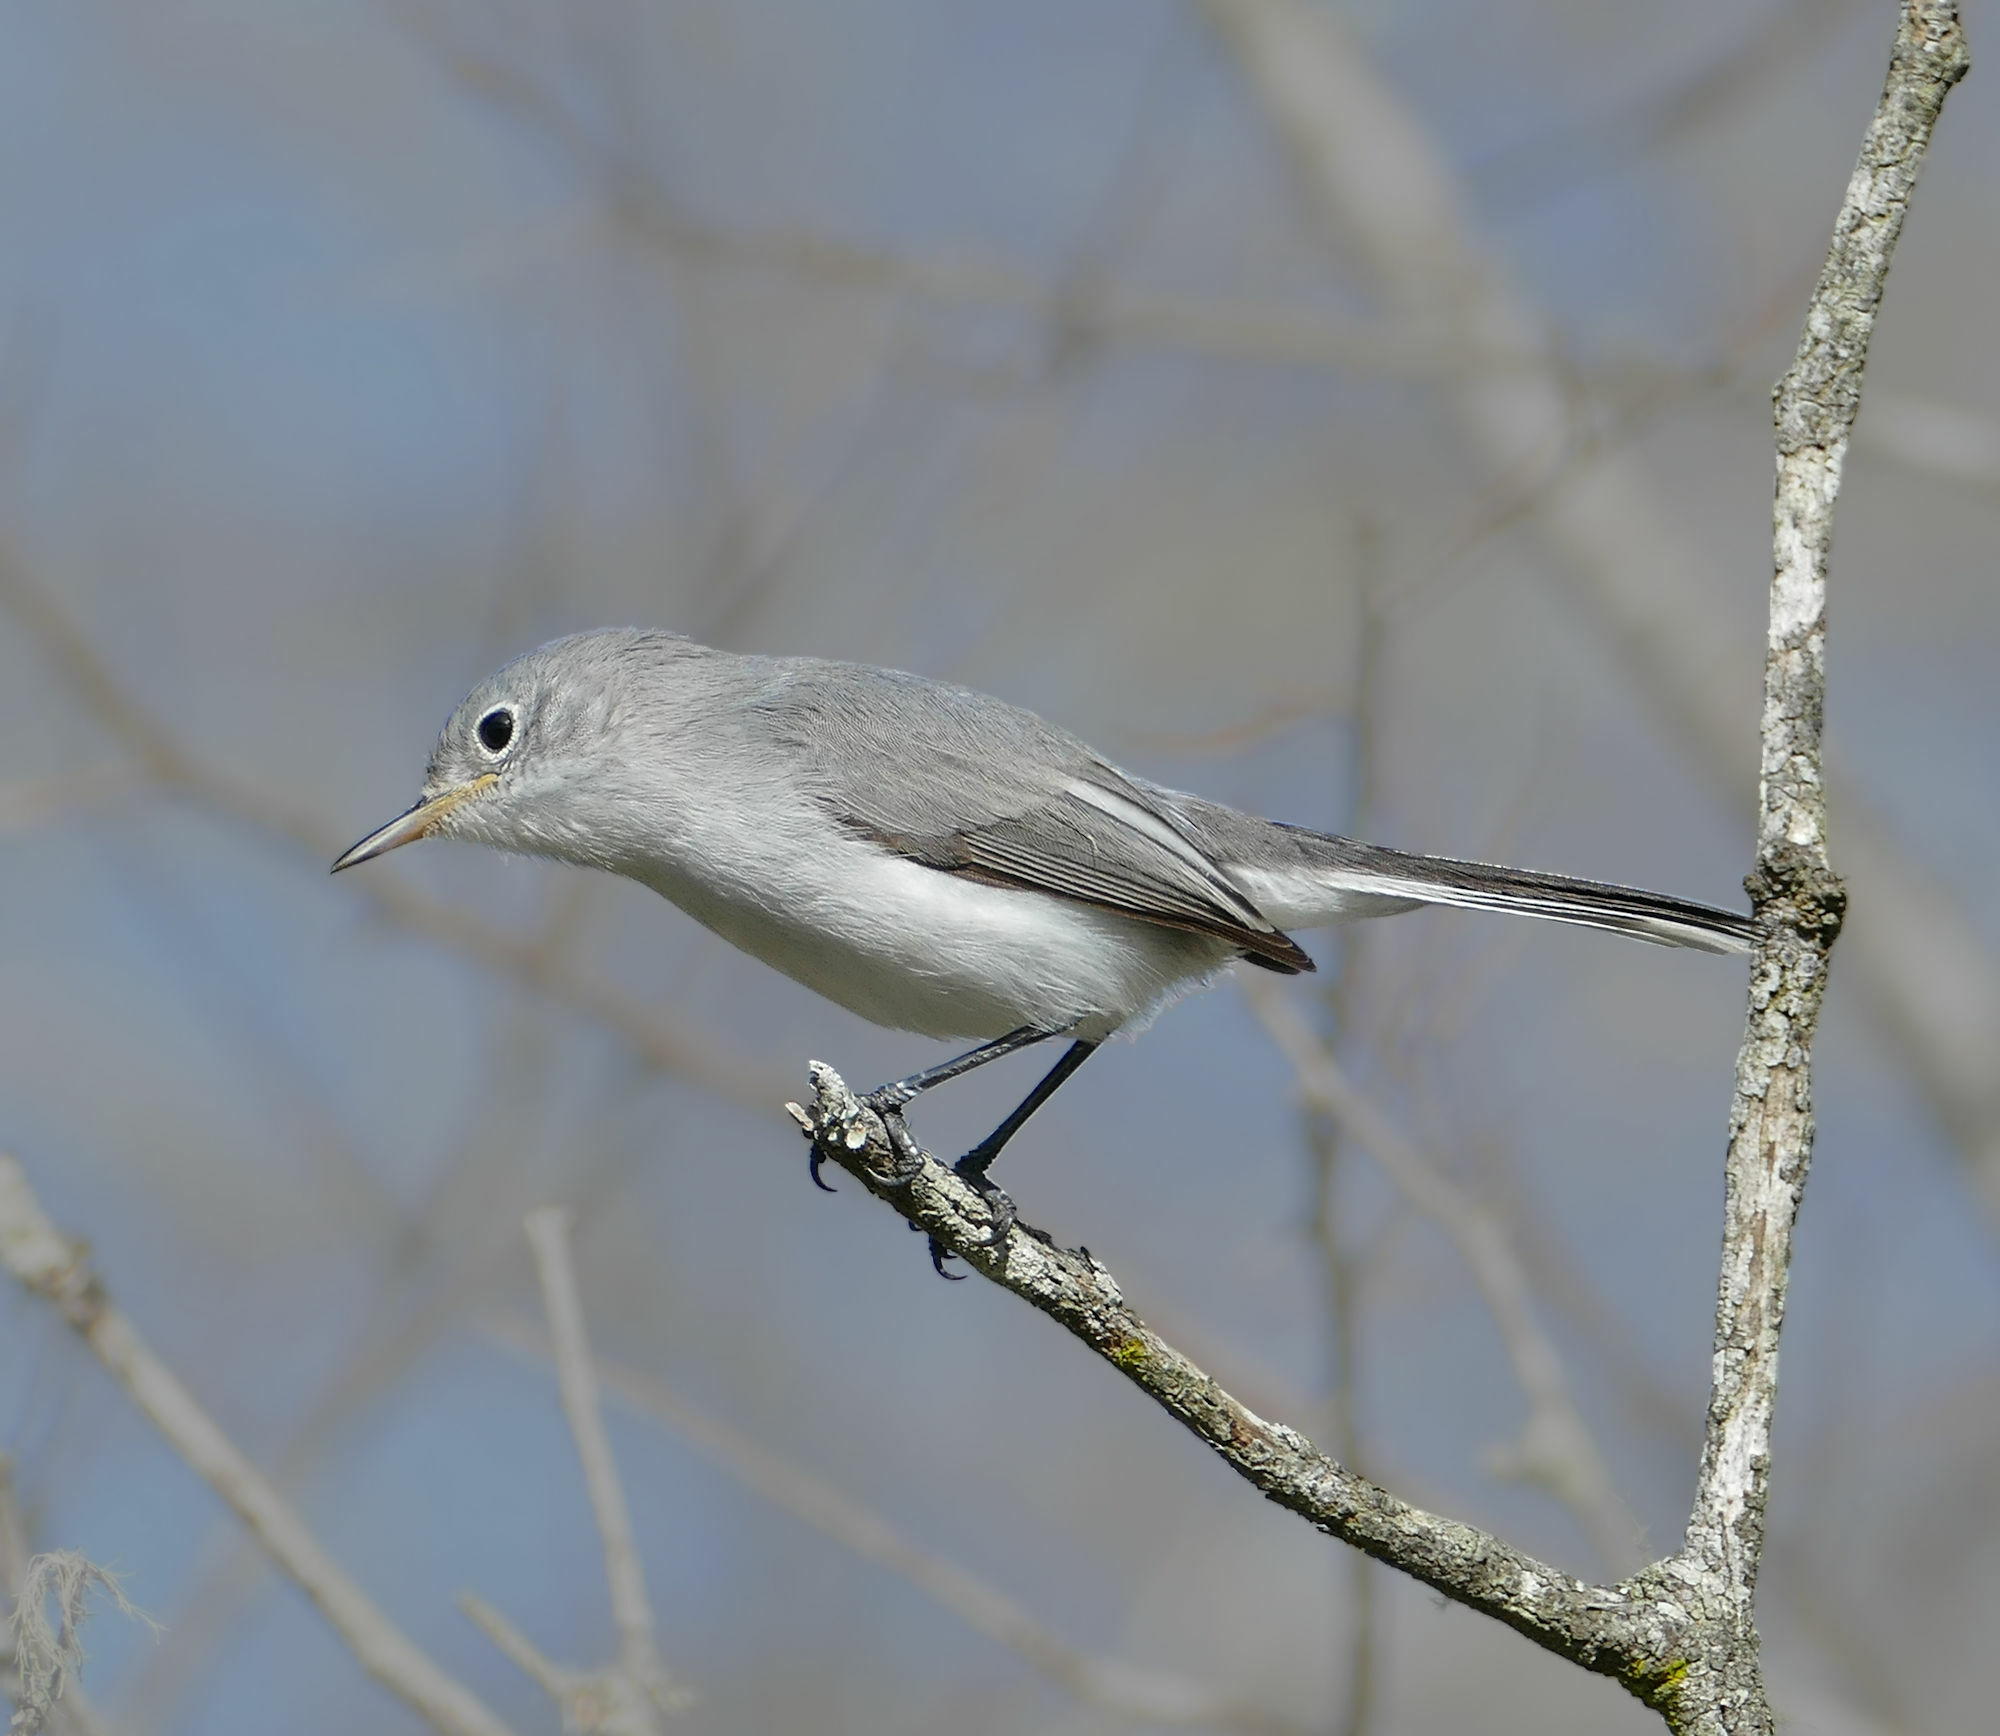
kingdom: Animalia
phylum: Chordata
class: Aves
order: Passeriformes
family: Polioptilidae
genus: Polioptila
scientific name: Polioptila caerulea
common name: Blue-gray gnatcatcher
